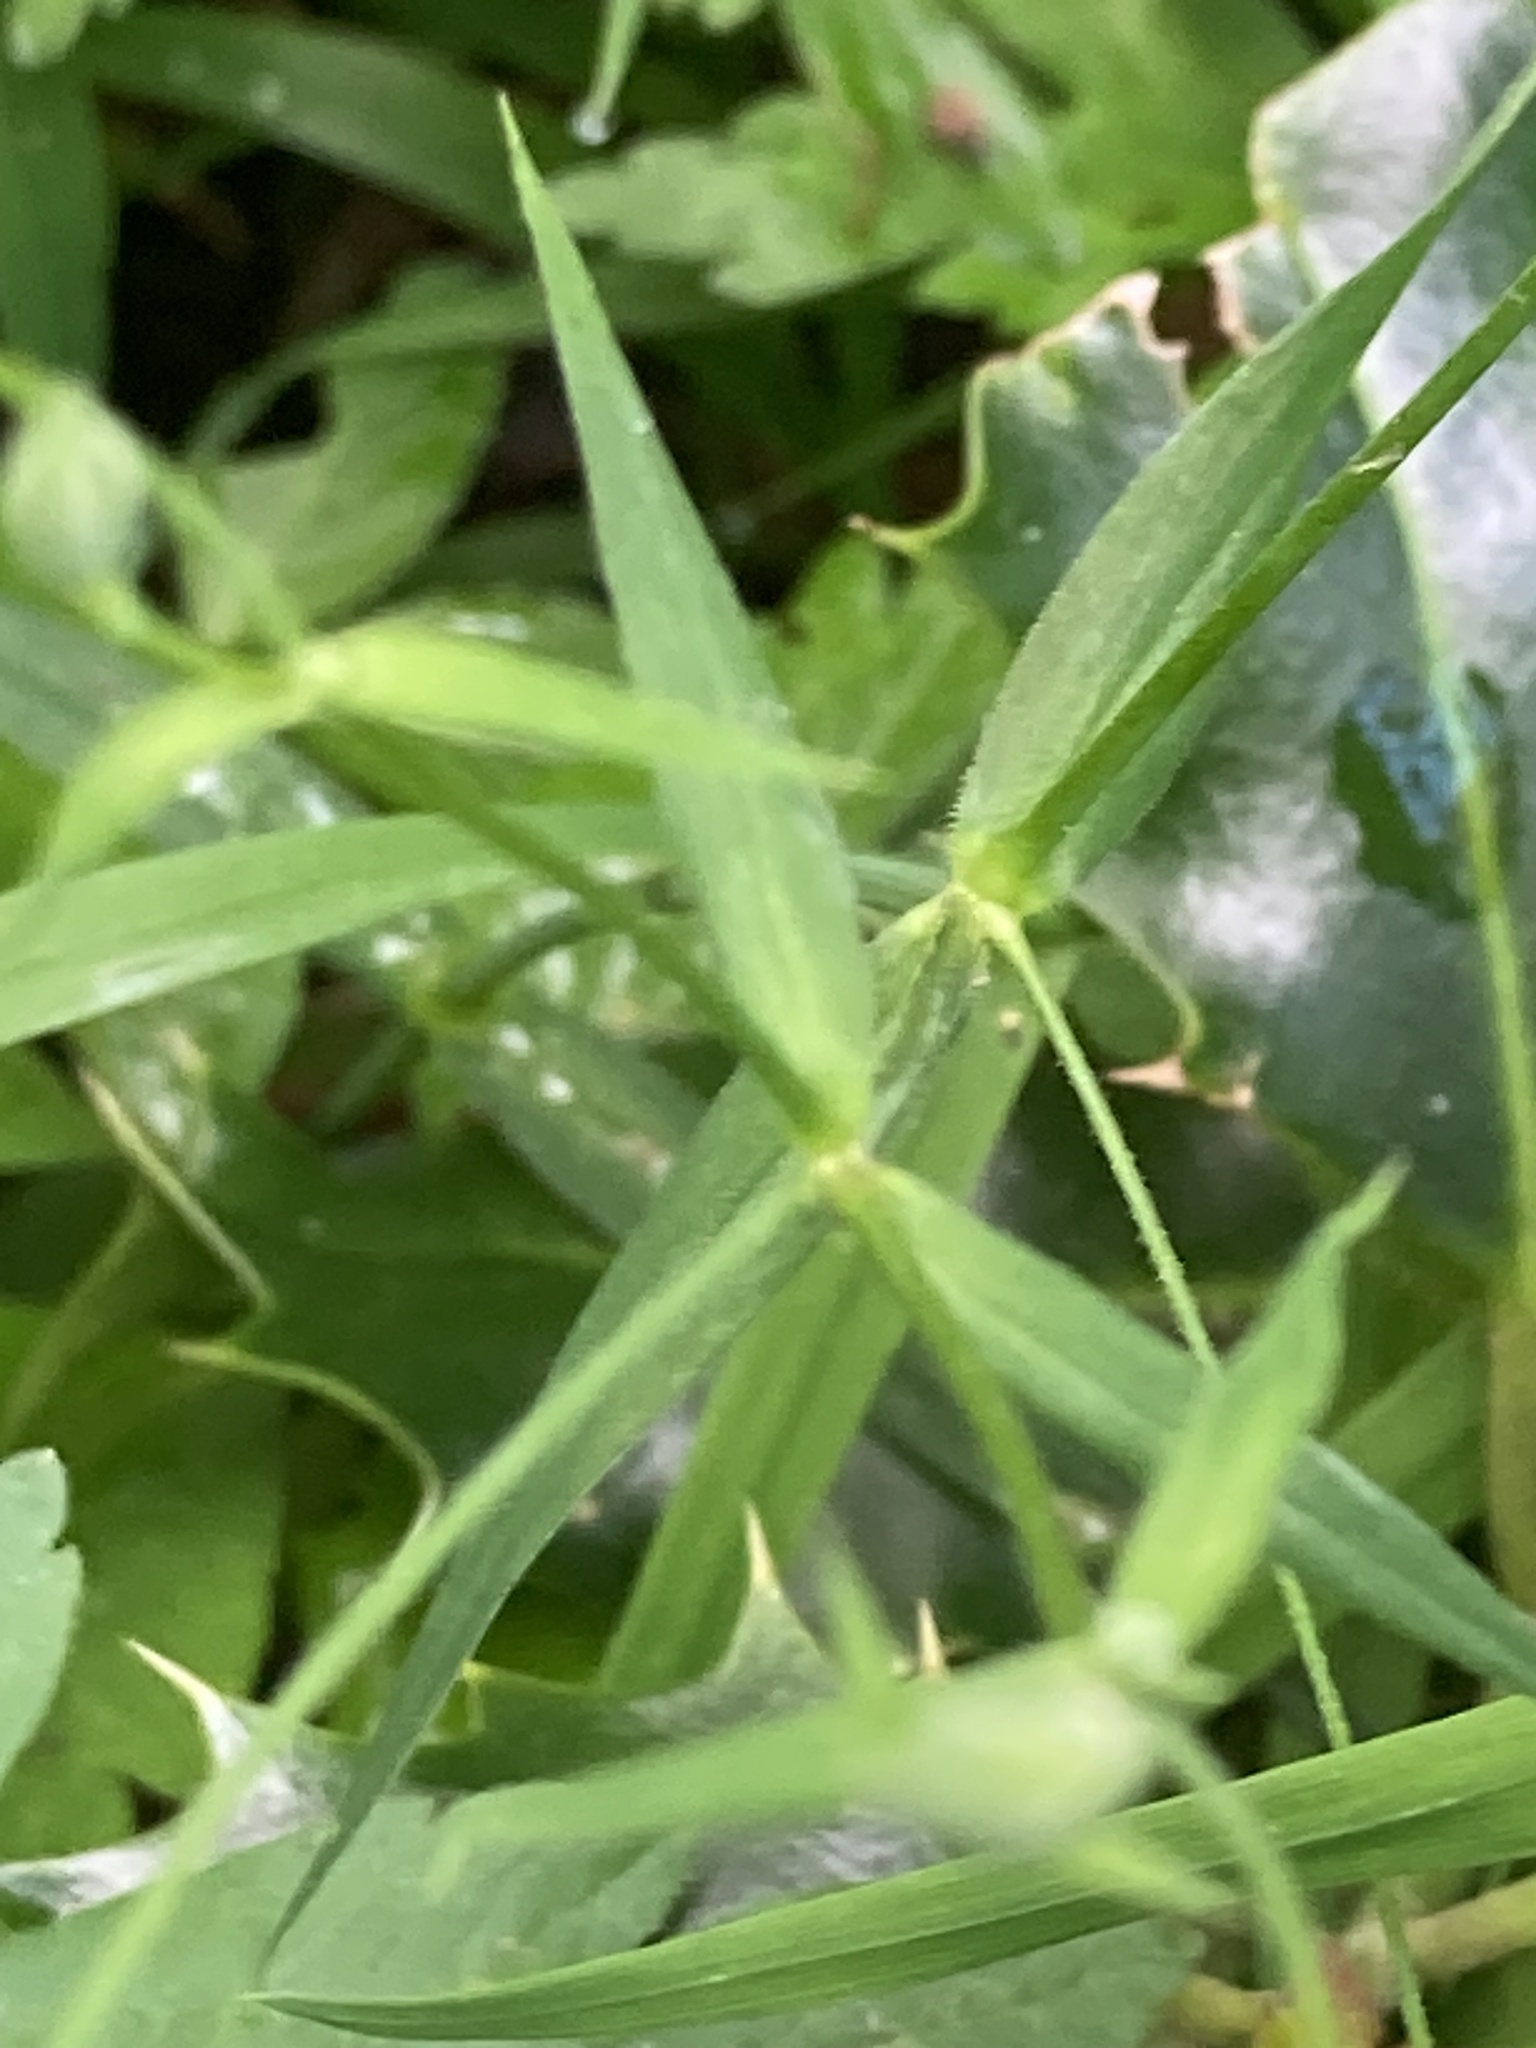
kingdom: Plantae
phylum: Tracheophyta
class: Magnoliopsida
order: Caryophyllales
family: Caryophyllaceae
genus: Rabelera
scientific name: Rabelera holostea
